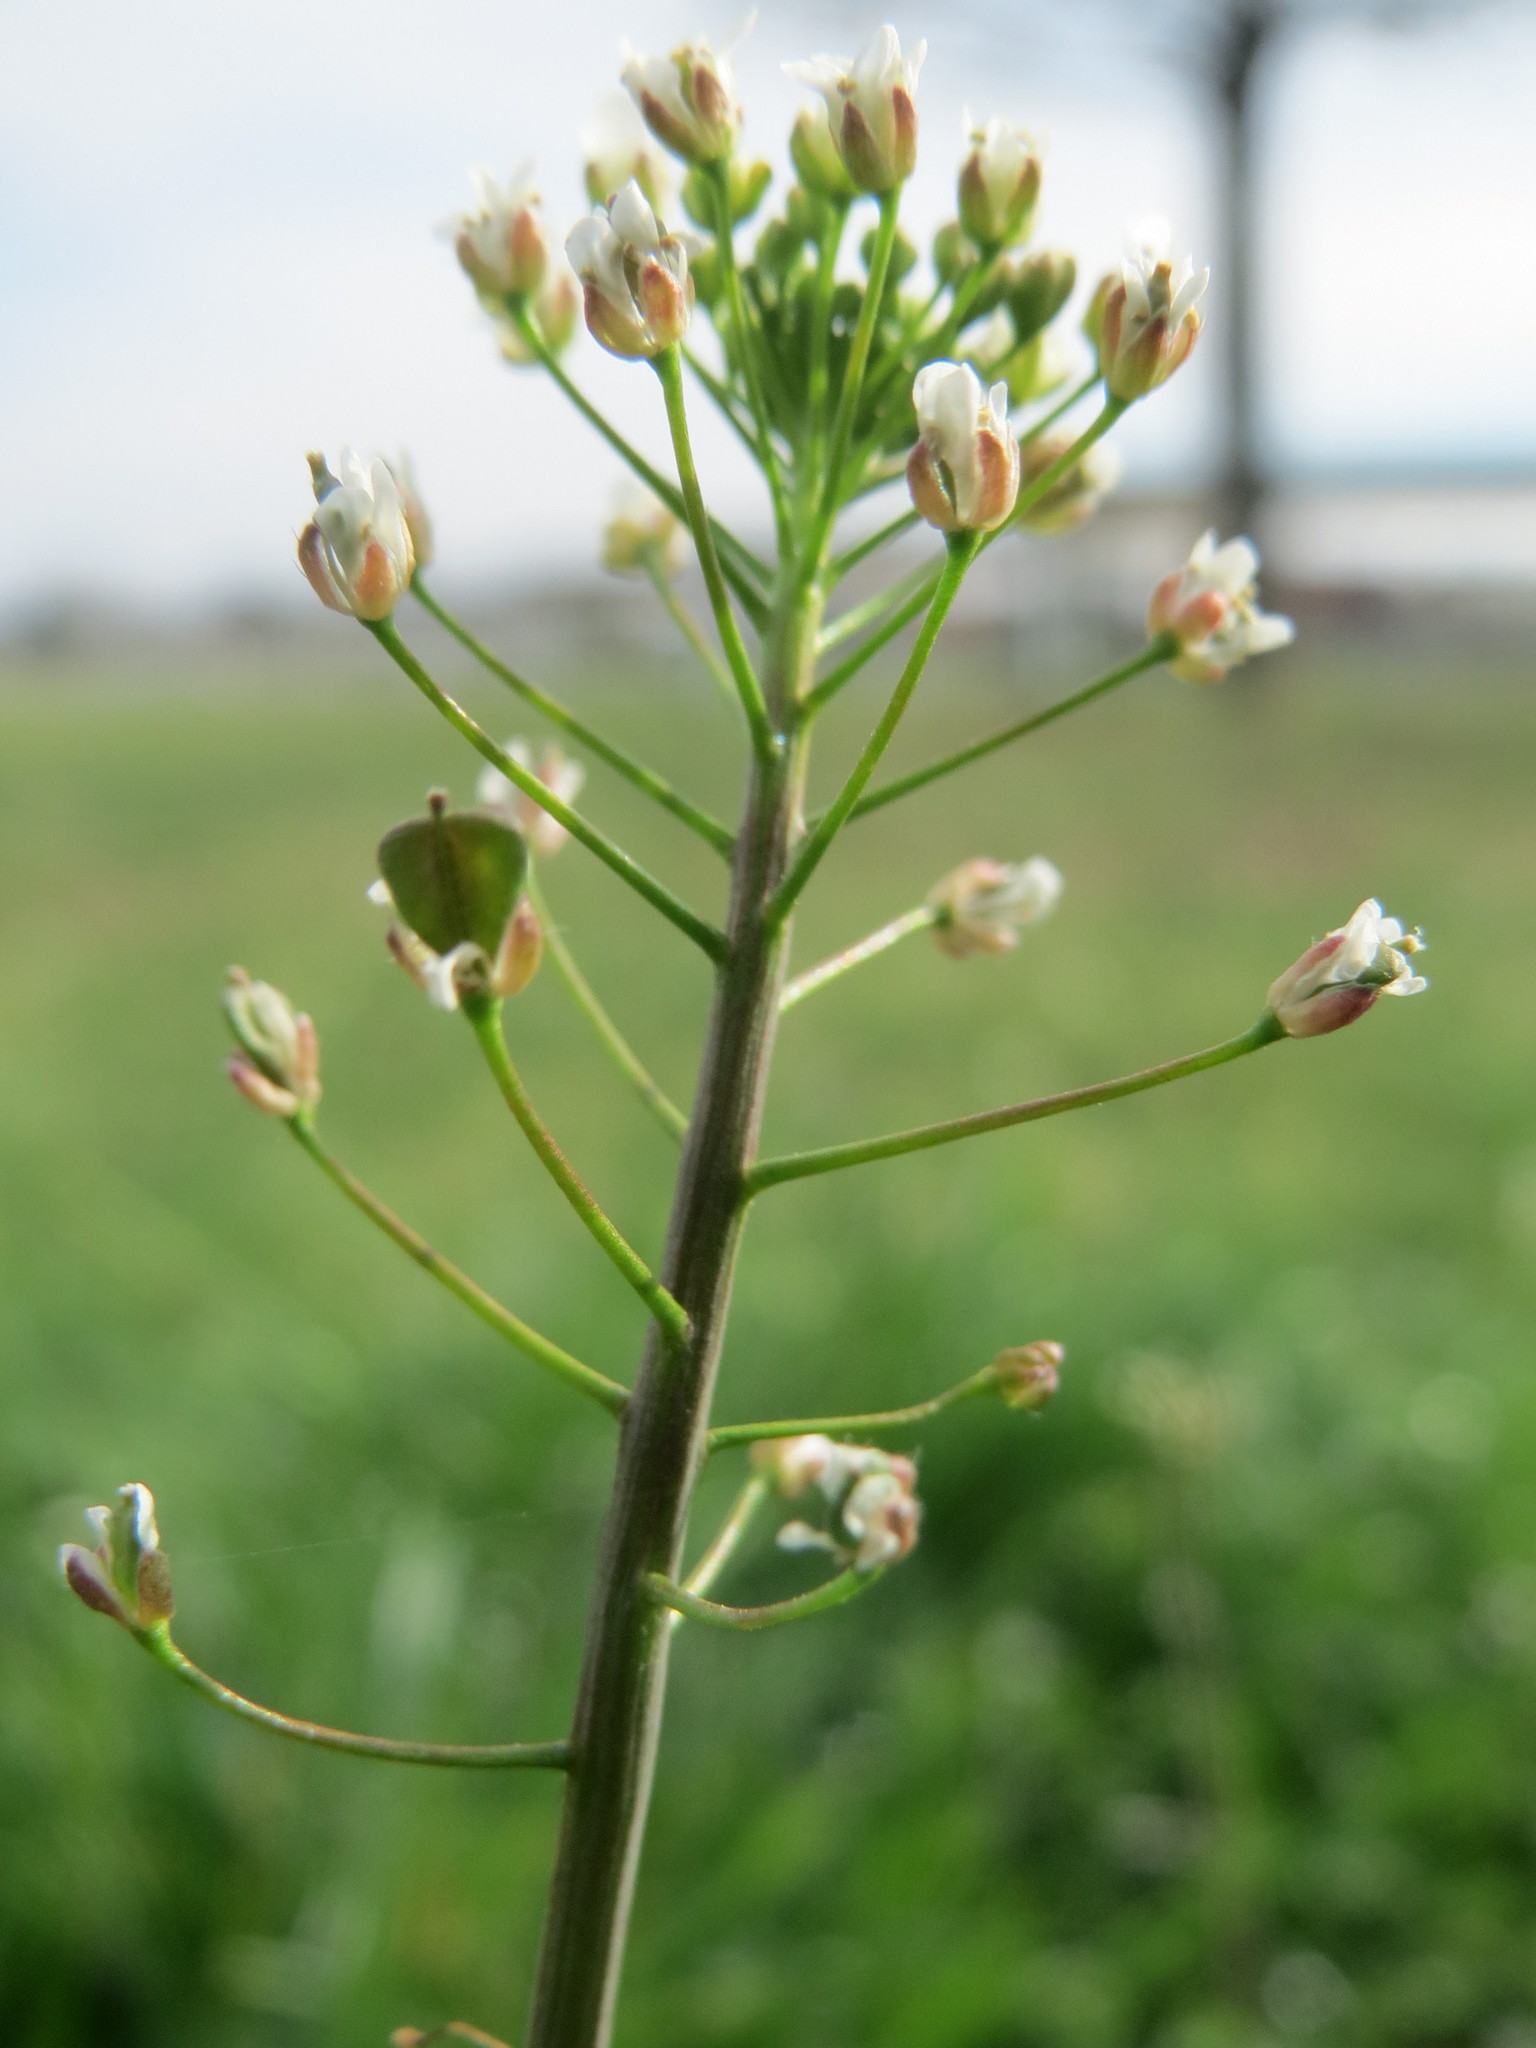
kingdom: Plantae
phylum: Tracheophyta
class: Magnoliopsida
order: Brassicales
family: Brassicaceae
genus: Capsella
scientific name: Capsella bursa-pastoris
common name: Shepherd's purse
